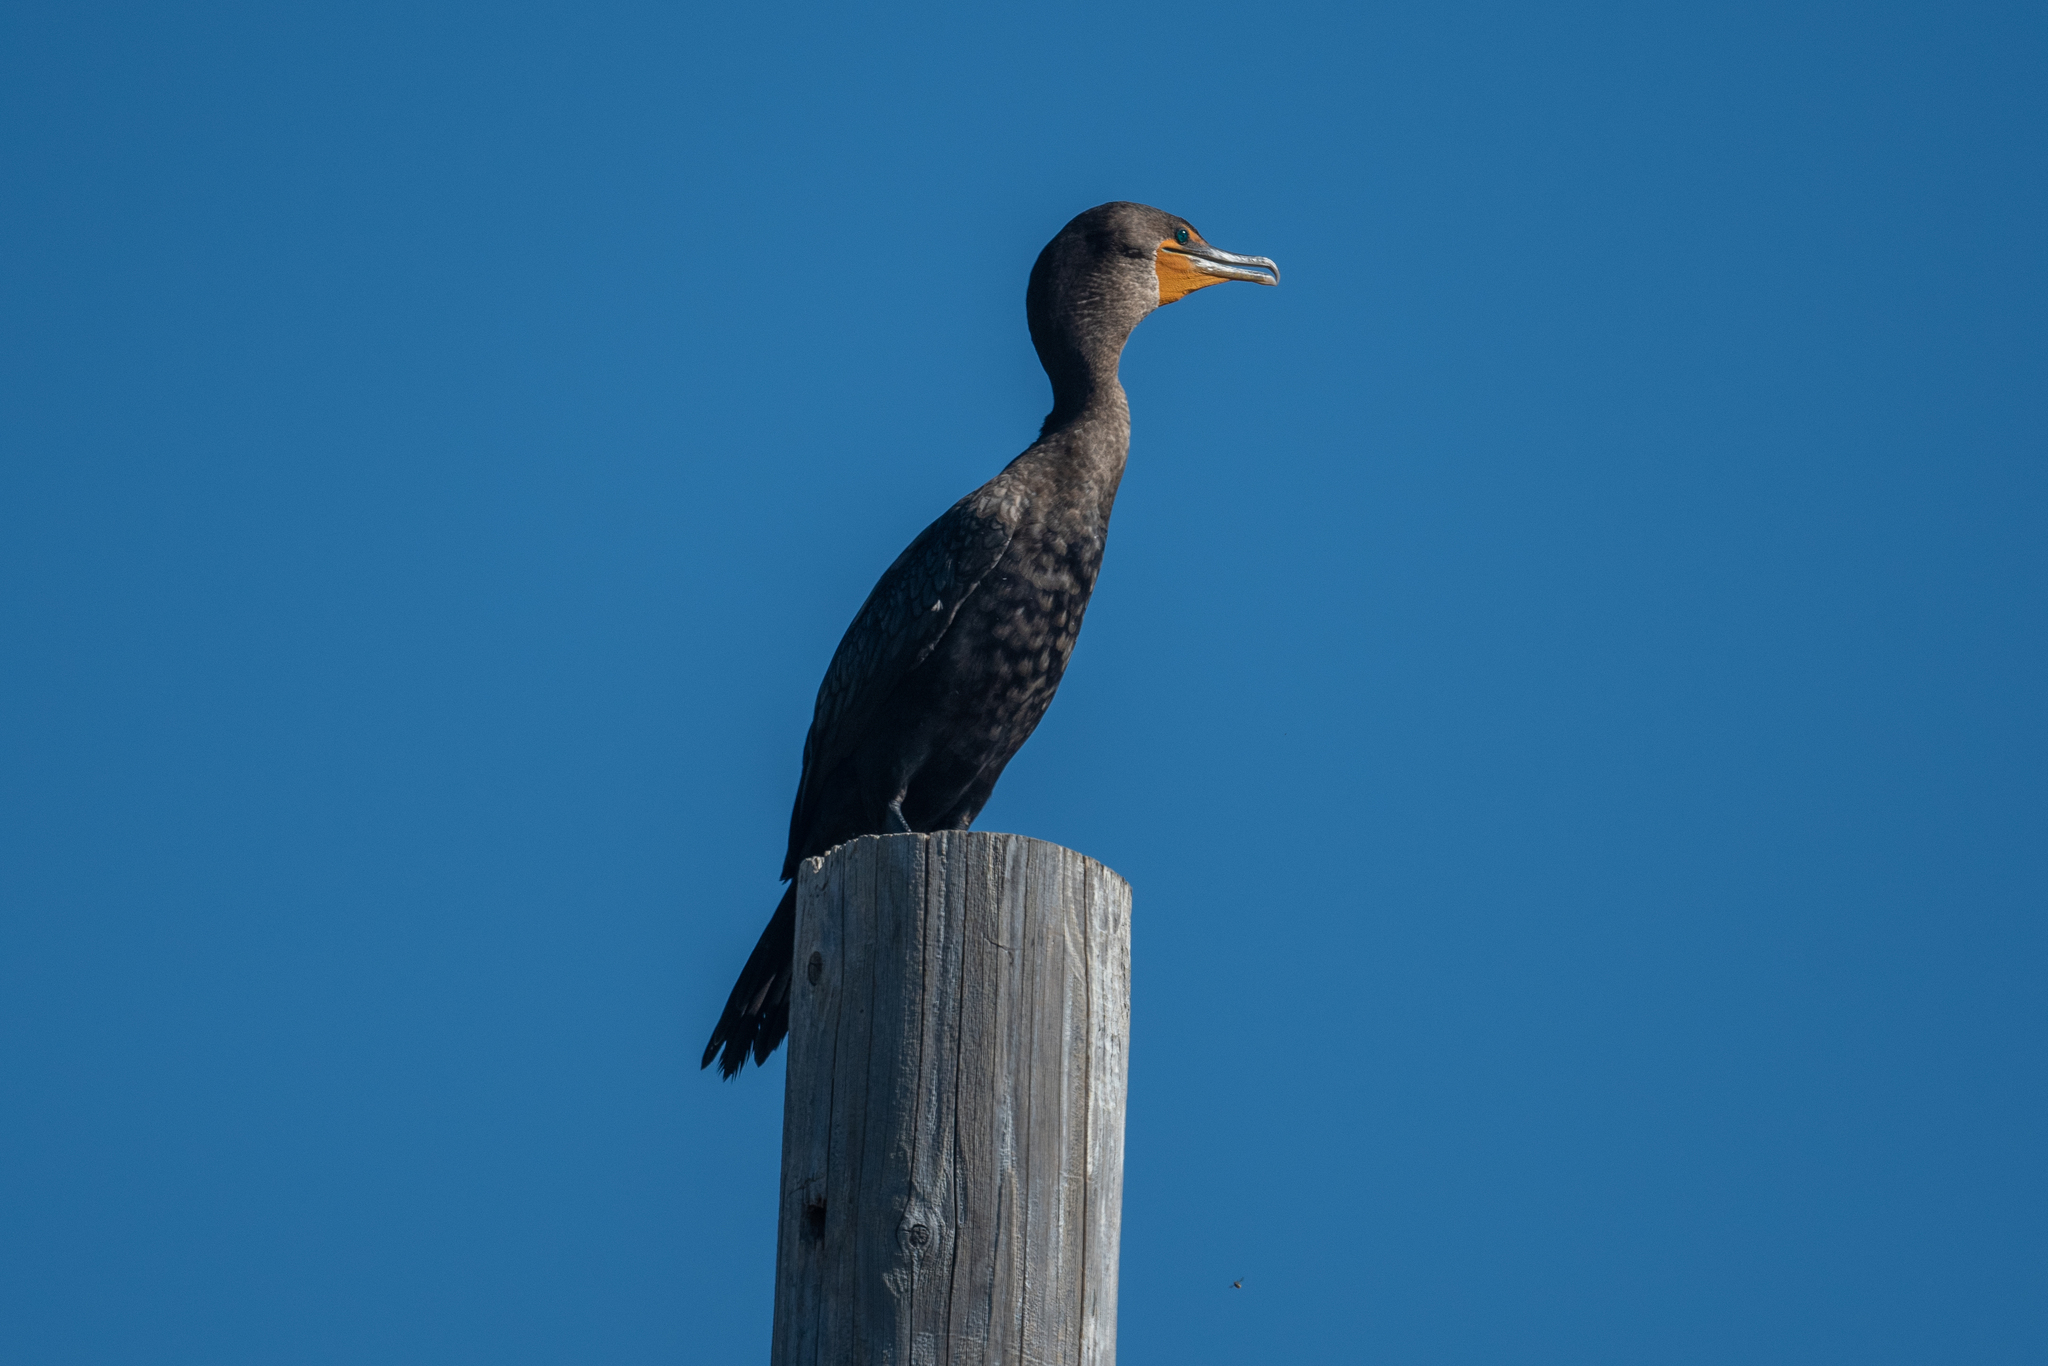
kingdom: Animalia
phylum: Chordata
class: Aves
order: Suliformes
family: Phalacrocoracidae
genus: Phalacrocorax
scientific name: Phalacrocorax auritus
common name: Double-crested cormorant
